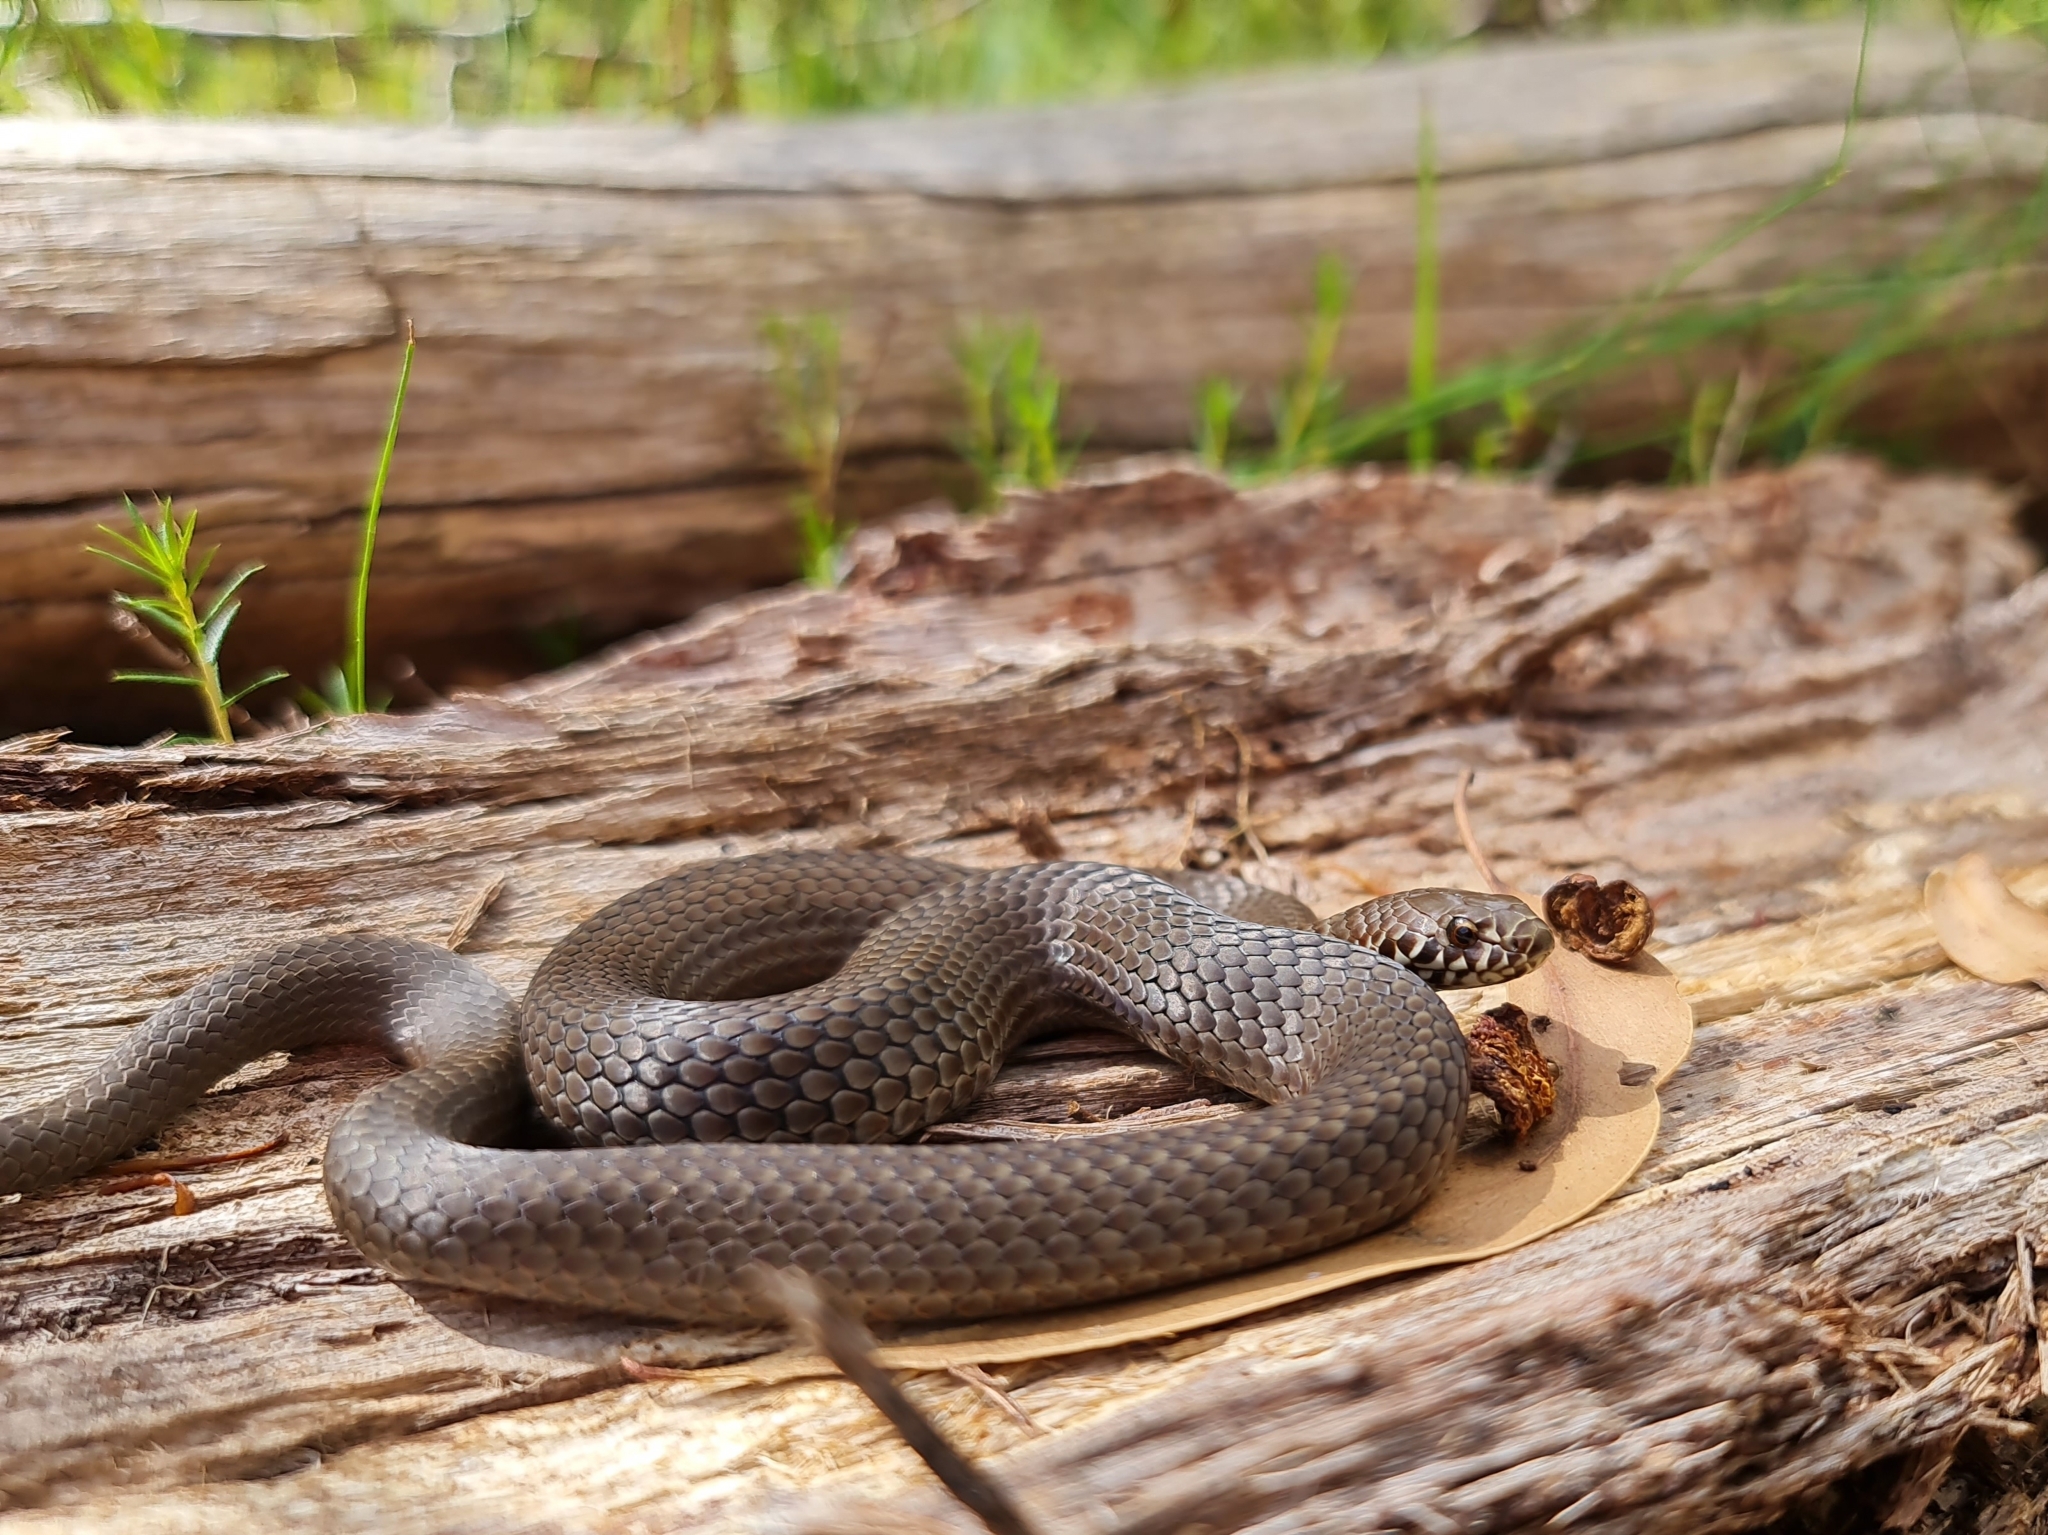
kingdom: Animalia
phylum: Chordata
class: Squamata
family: Elapidae
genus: Austrelaps
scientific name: Austrelaps labialis
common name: Pygmy copperhead
